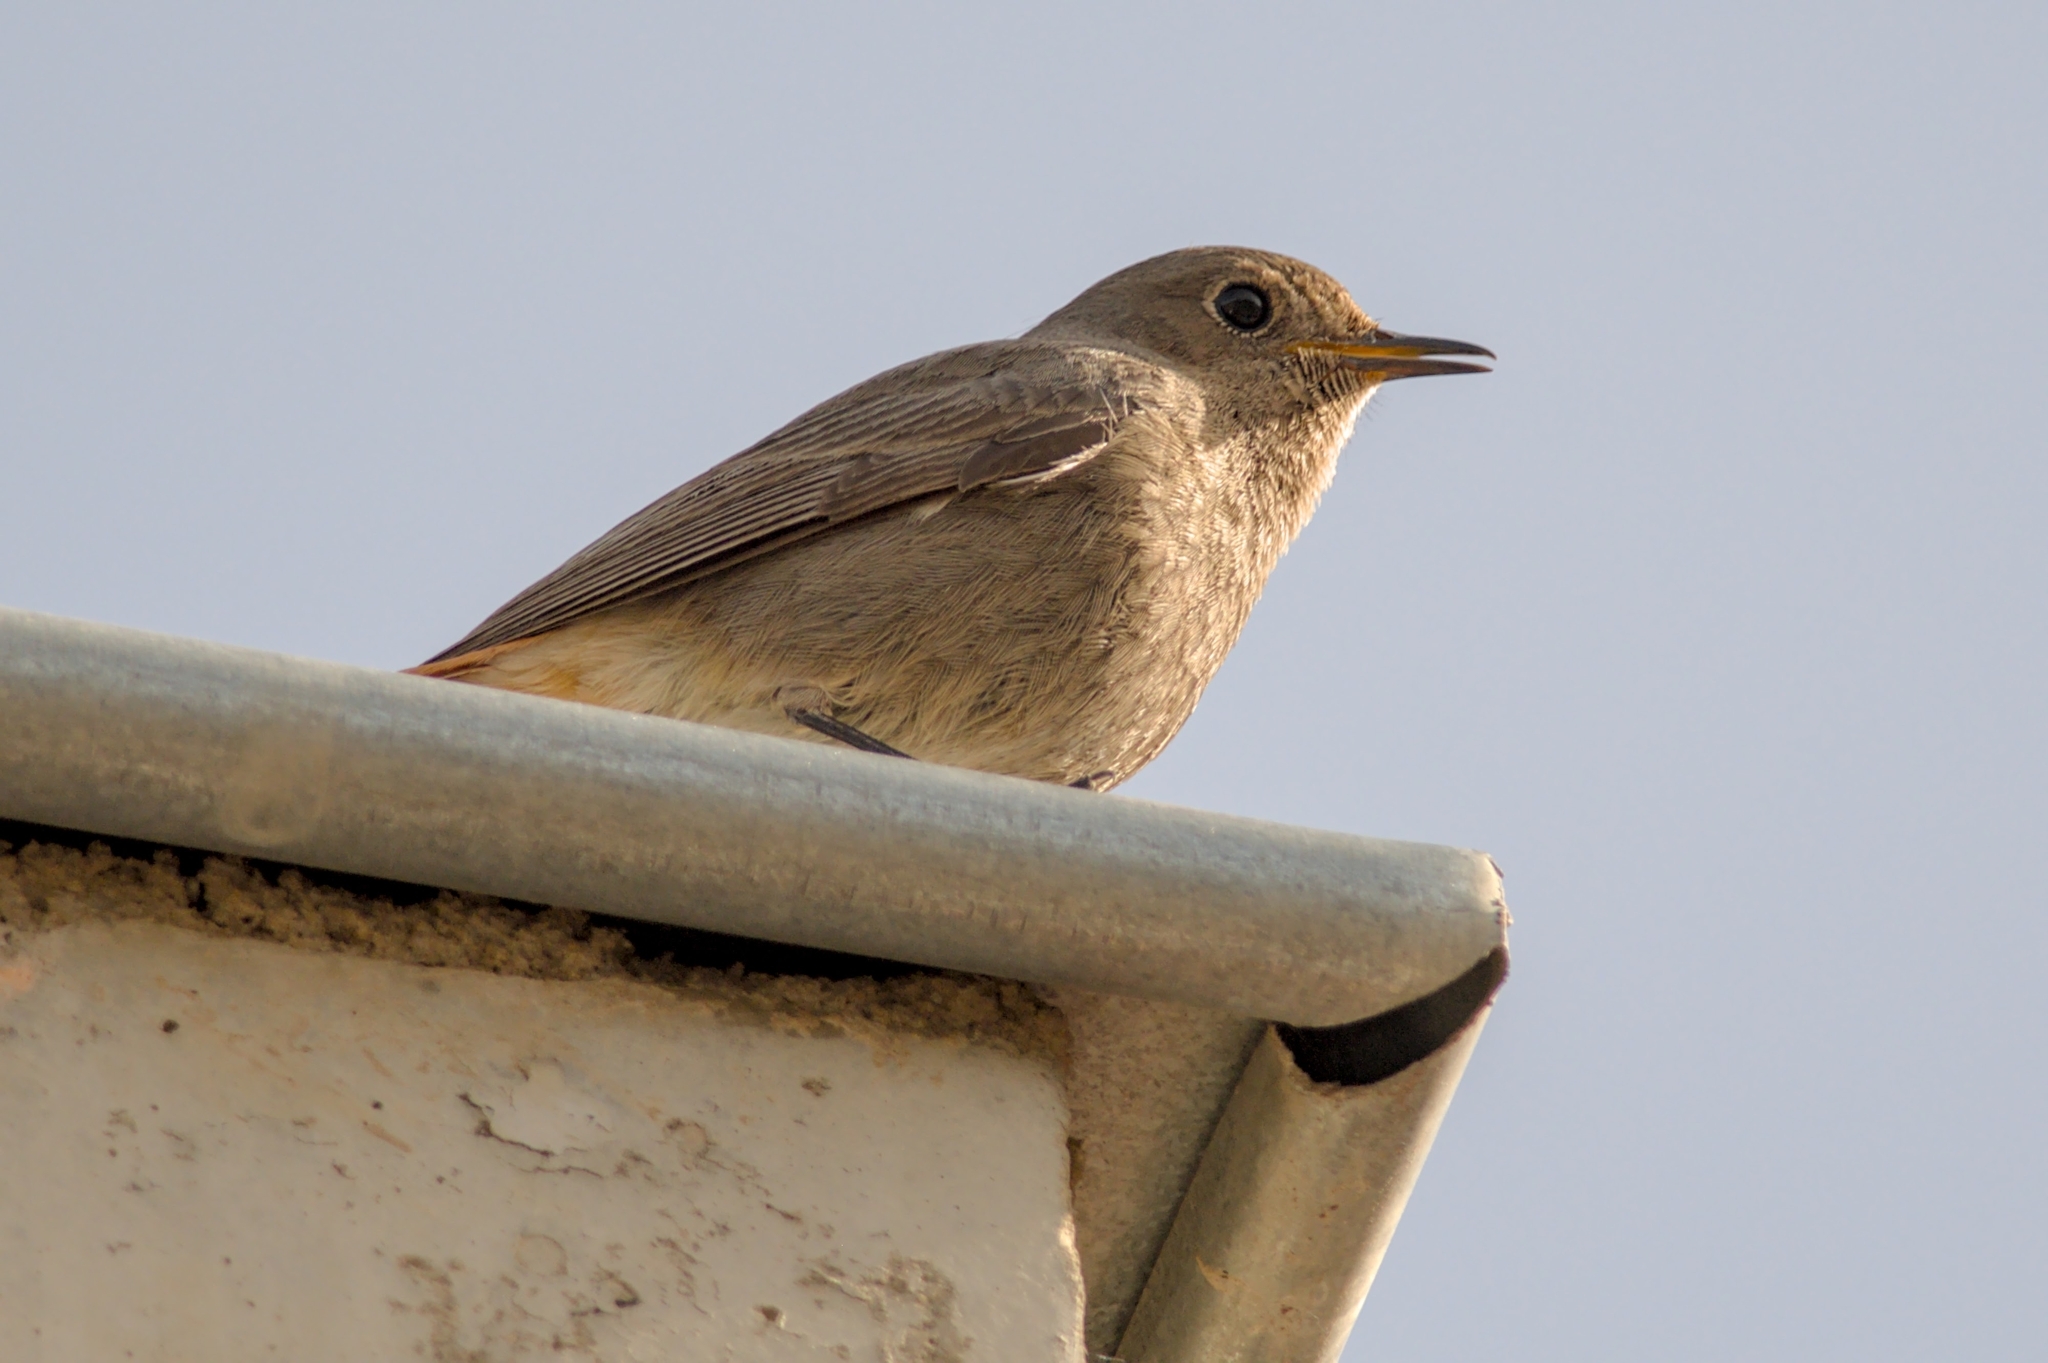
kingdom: Animalia
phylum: Chordata
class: Aves
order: Passeriformes
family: Muscicapidae
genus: Phoenicurus
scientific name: Phoenicurus ochruros
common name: Black redstart
